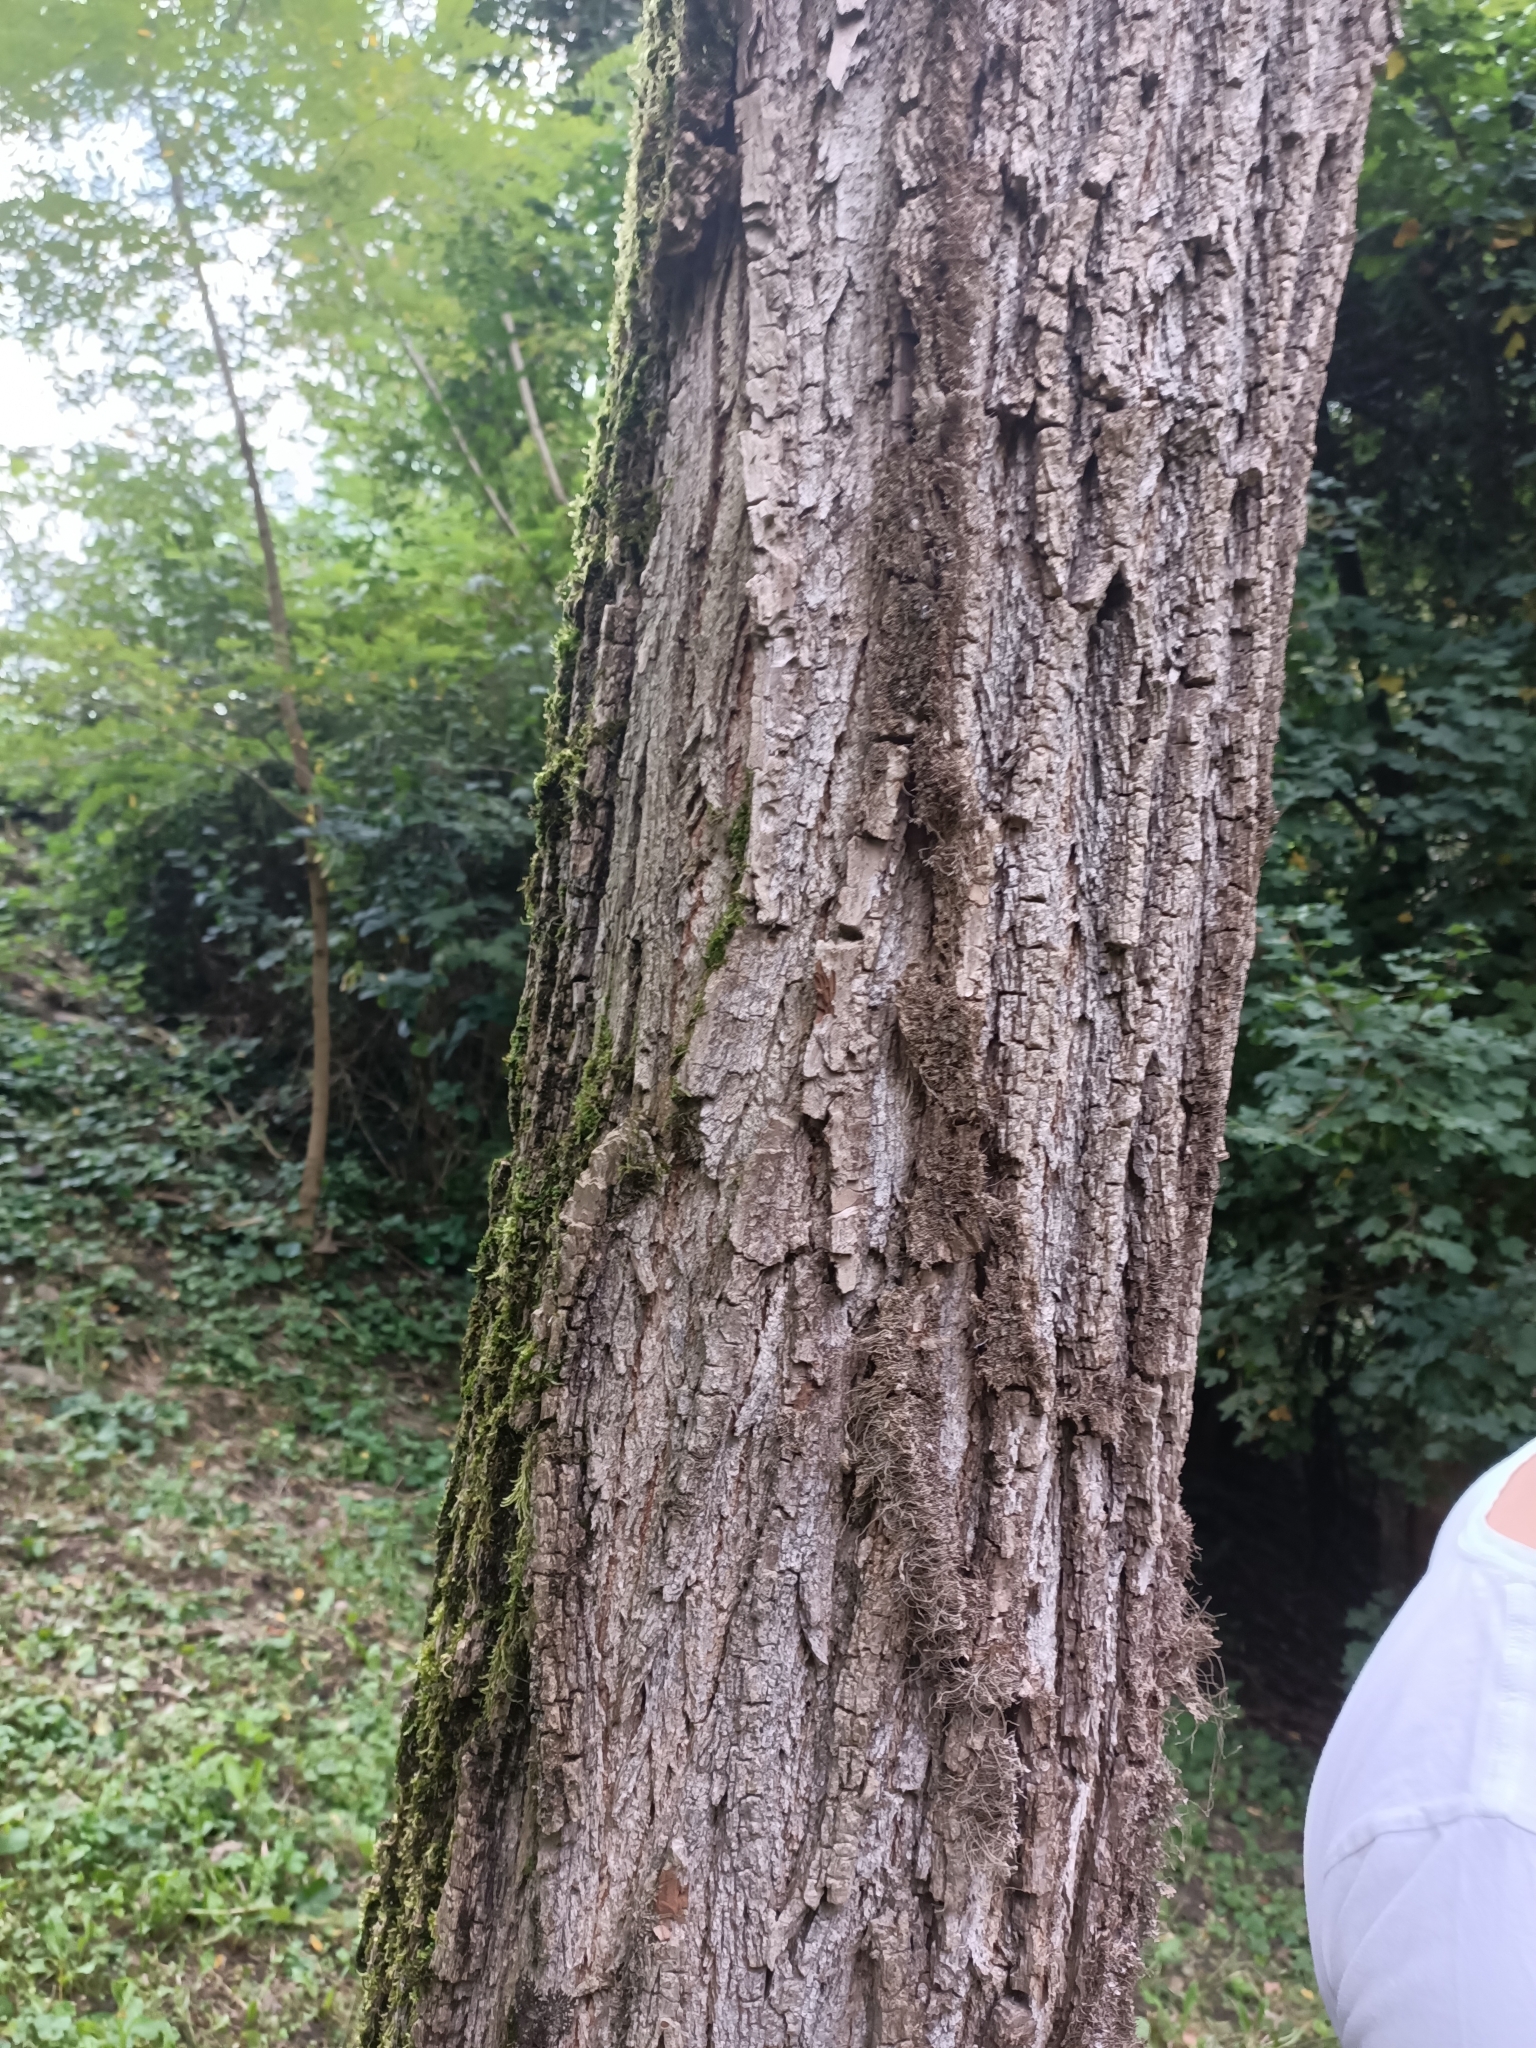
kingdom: Plantae
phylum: Tracheophyta
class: Magnoliopsida
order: Fabales
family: Fabaceae
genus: Robinia
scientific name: Robinia pseudoacacia
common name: Black locust
